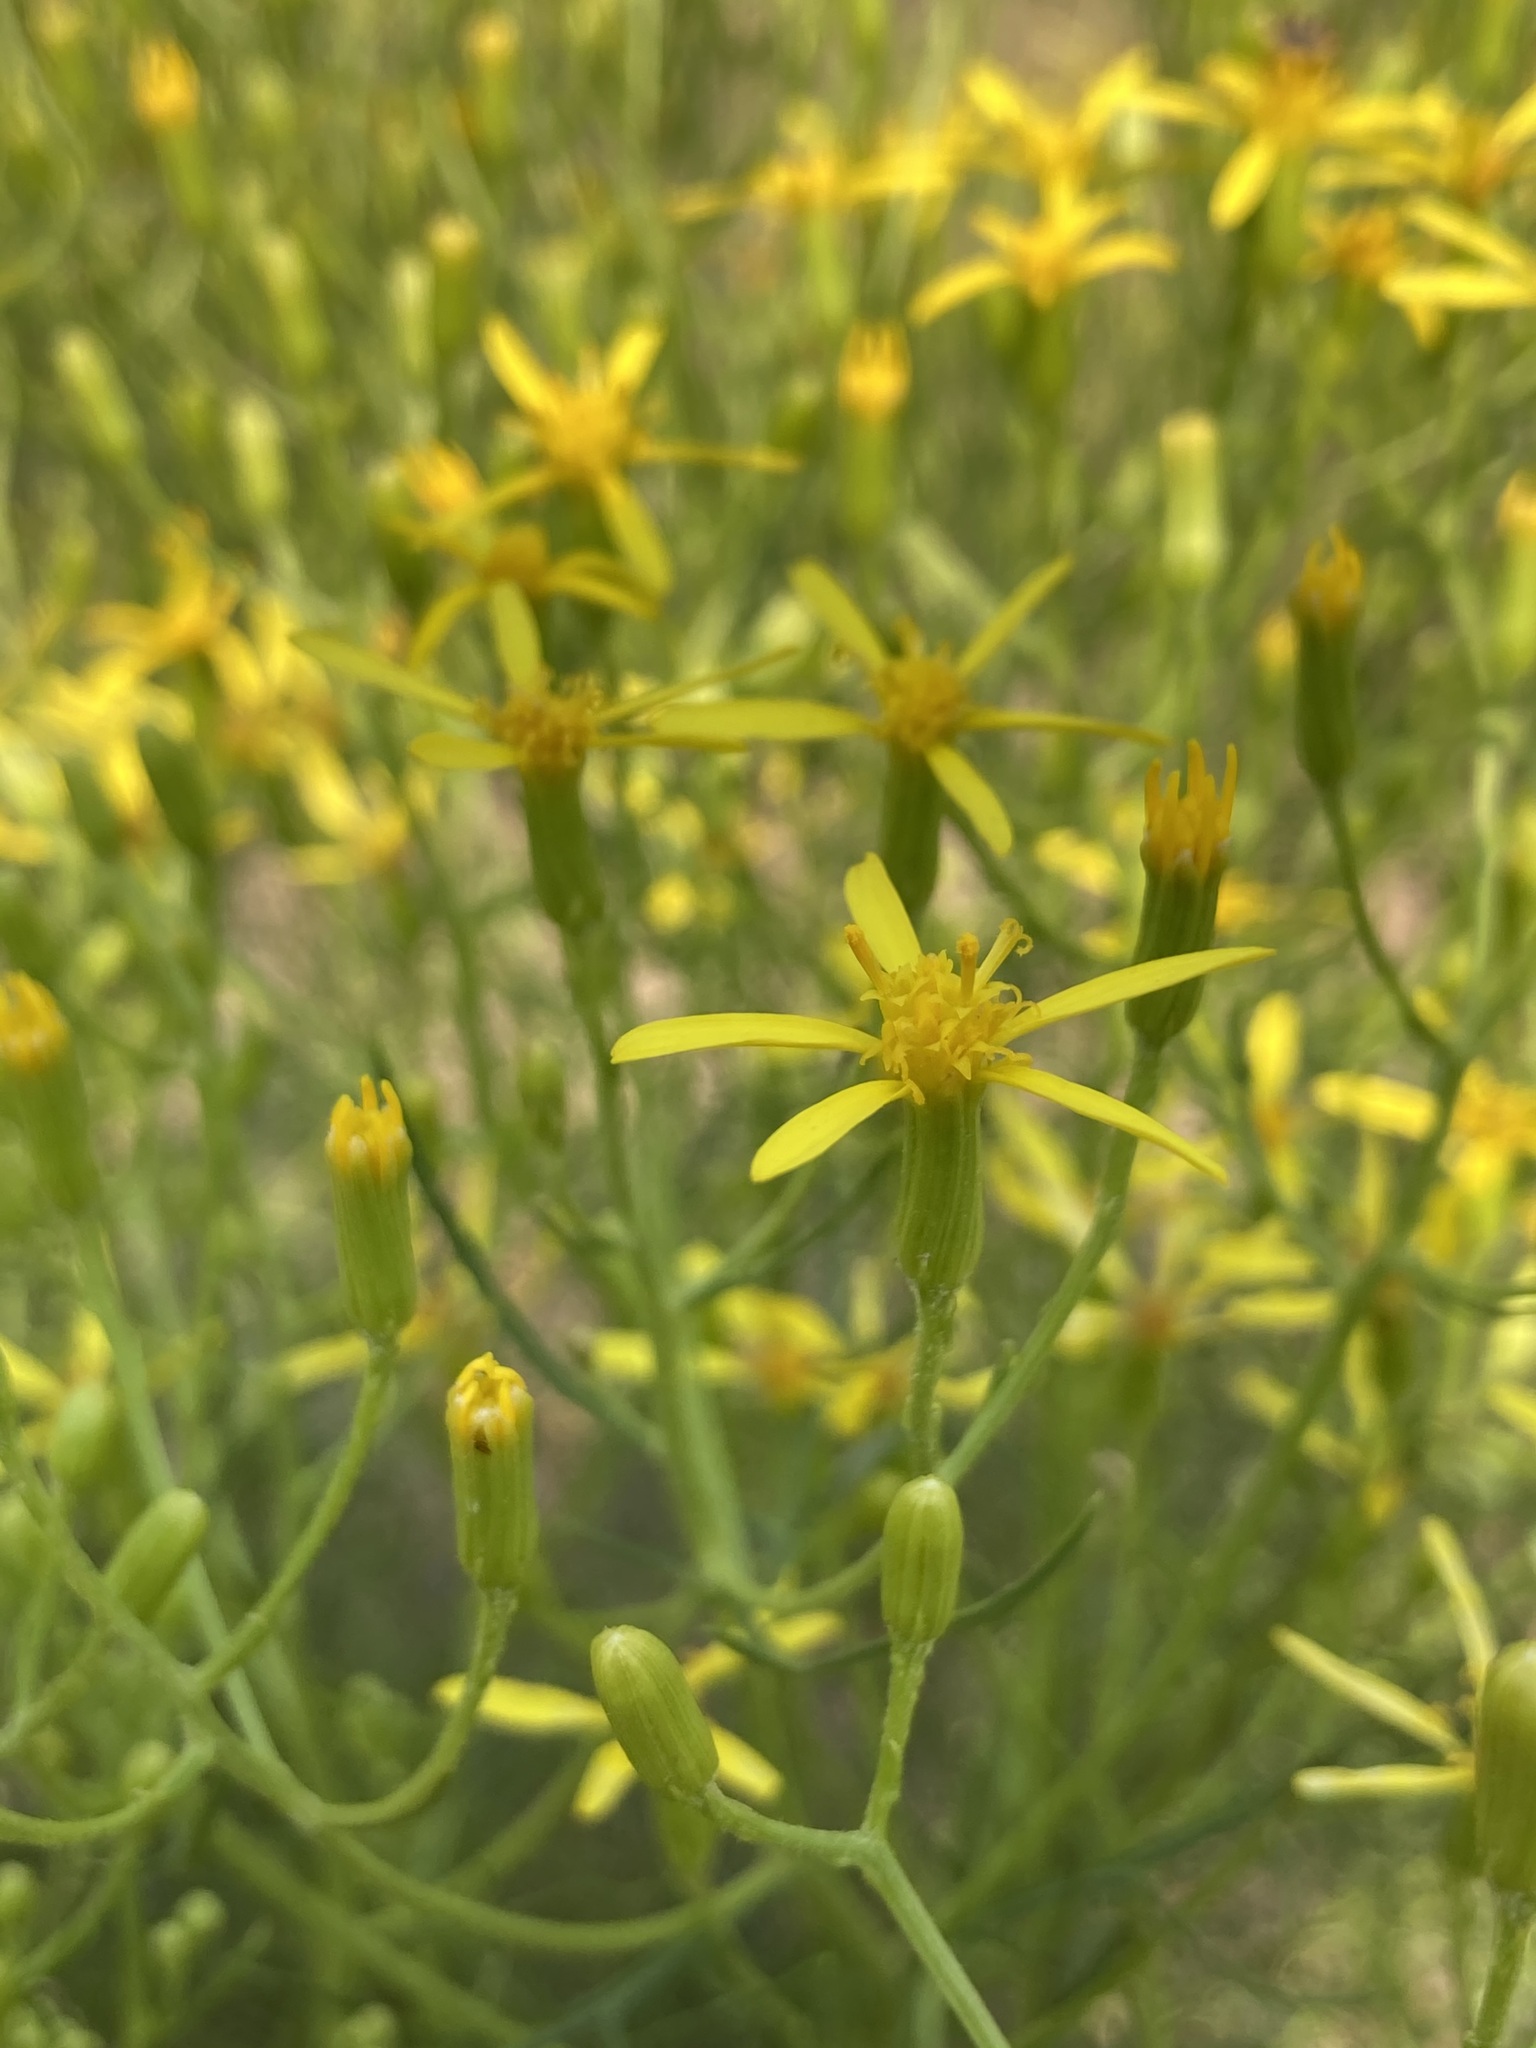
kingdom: Plantae
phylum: Tracheophyta
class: Magnoliopsida
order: Asterales
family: Asteraceae
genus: Senecio
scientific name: Senecio spartioides
